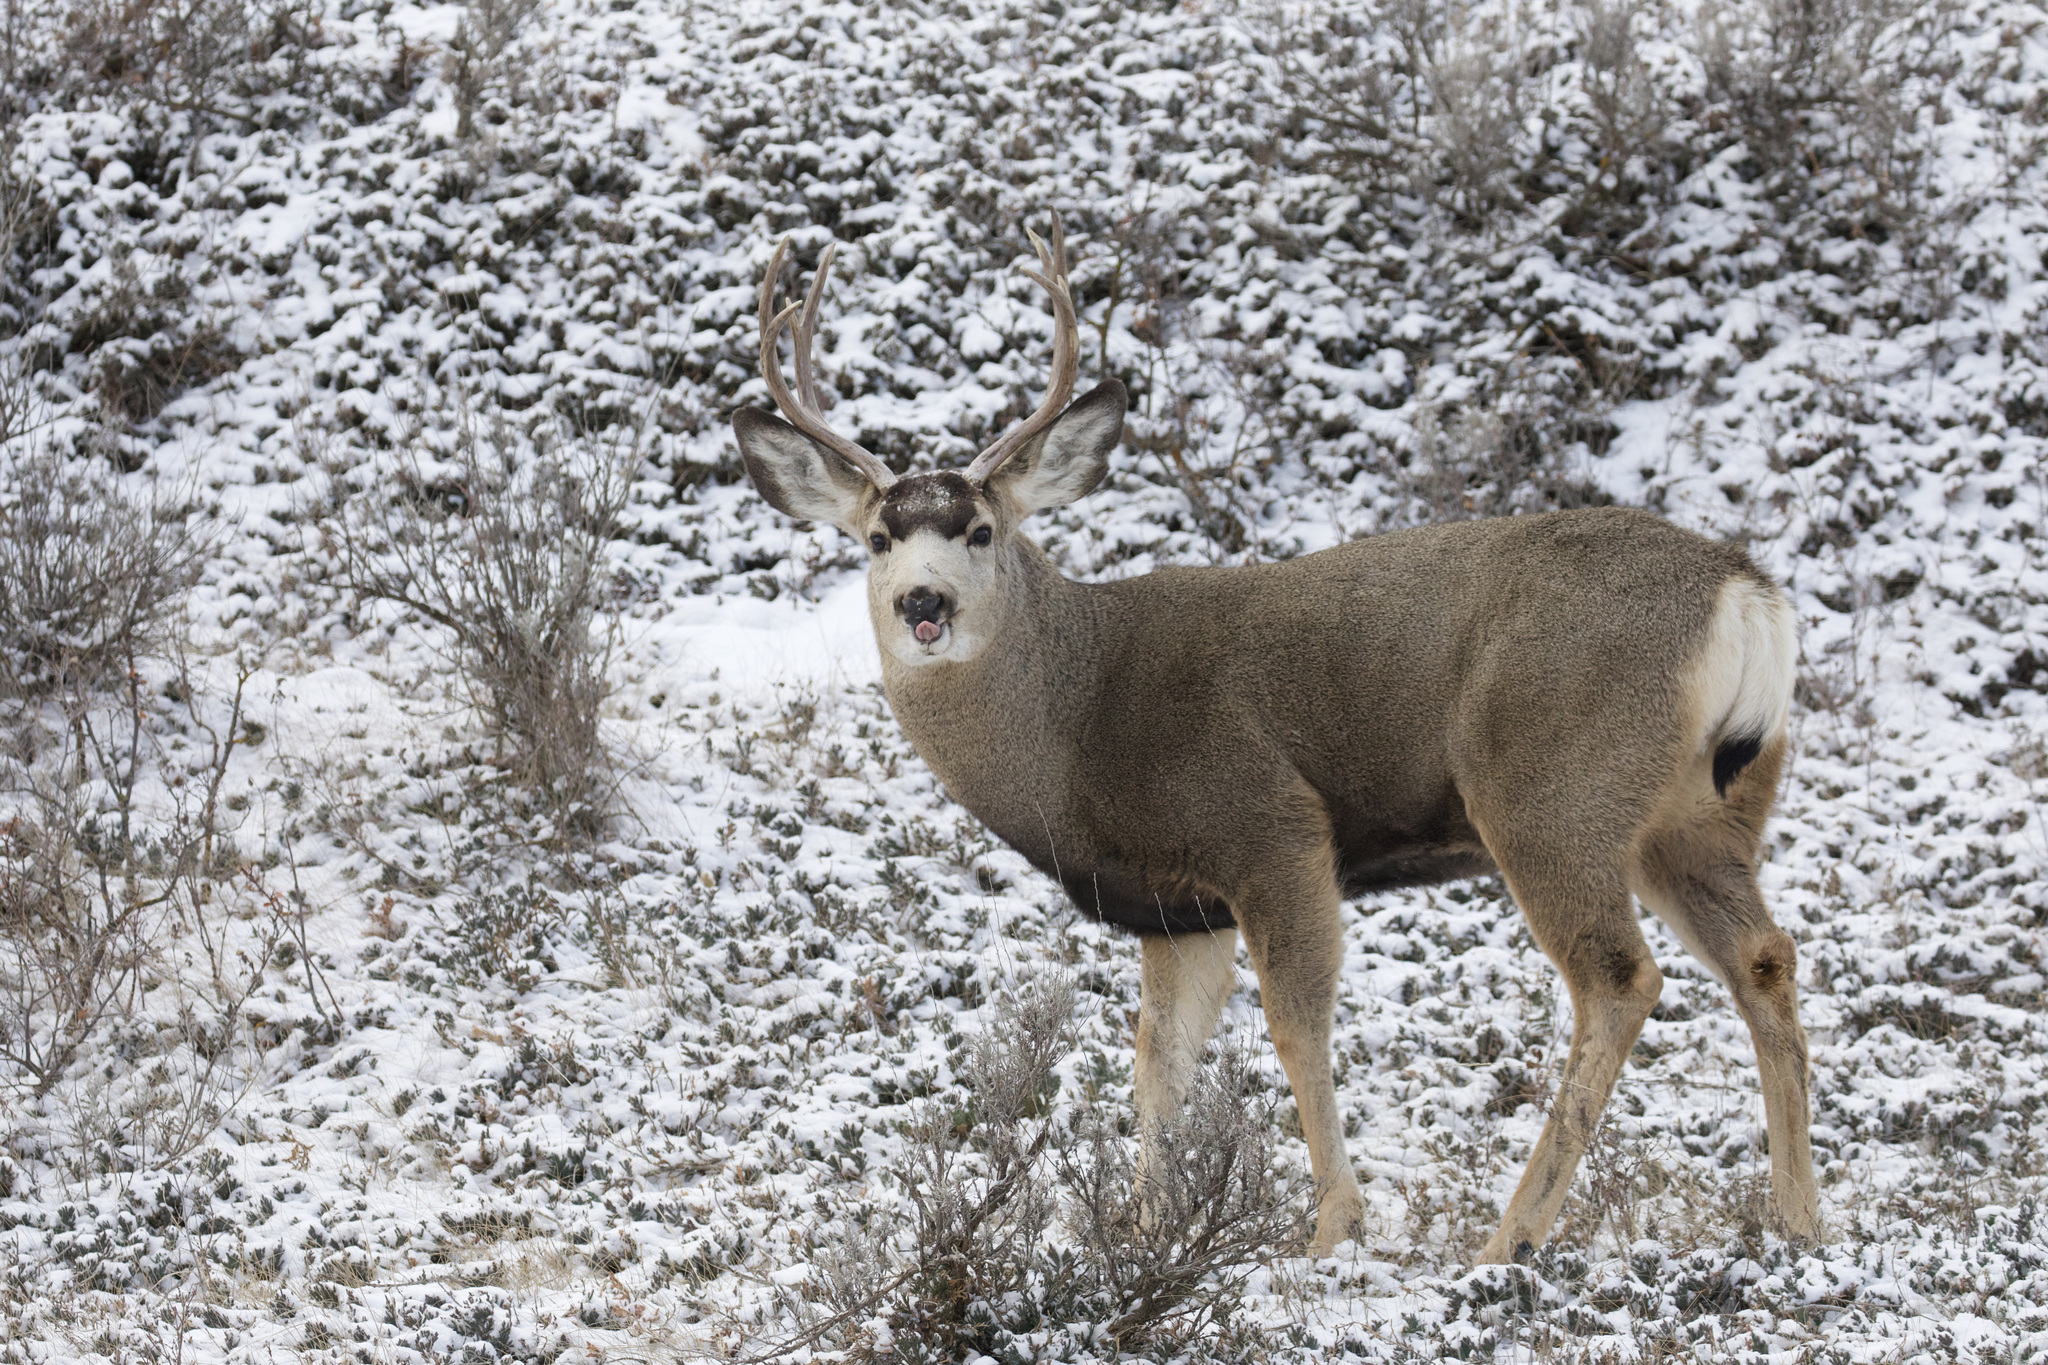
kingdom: Animalia
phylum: Chordata
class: Mammalia
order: Artiodactyla
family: Cervidae
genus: Odocoileus
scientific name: Odocoileus hemionus
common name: Mule deer
